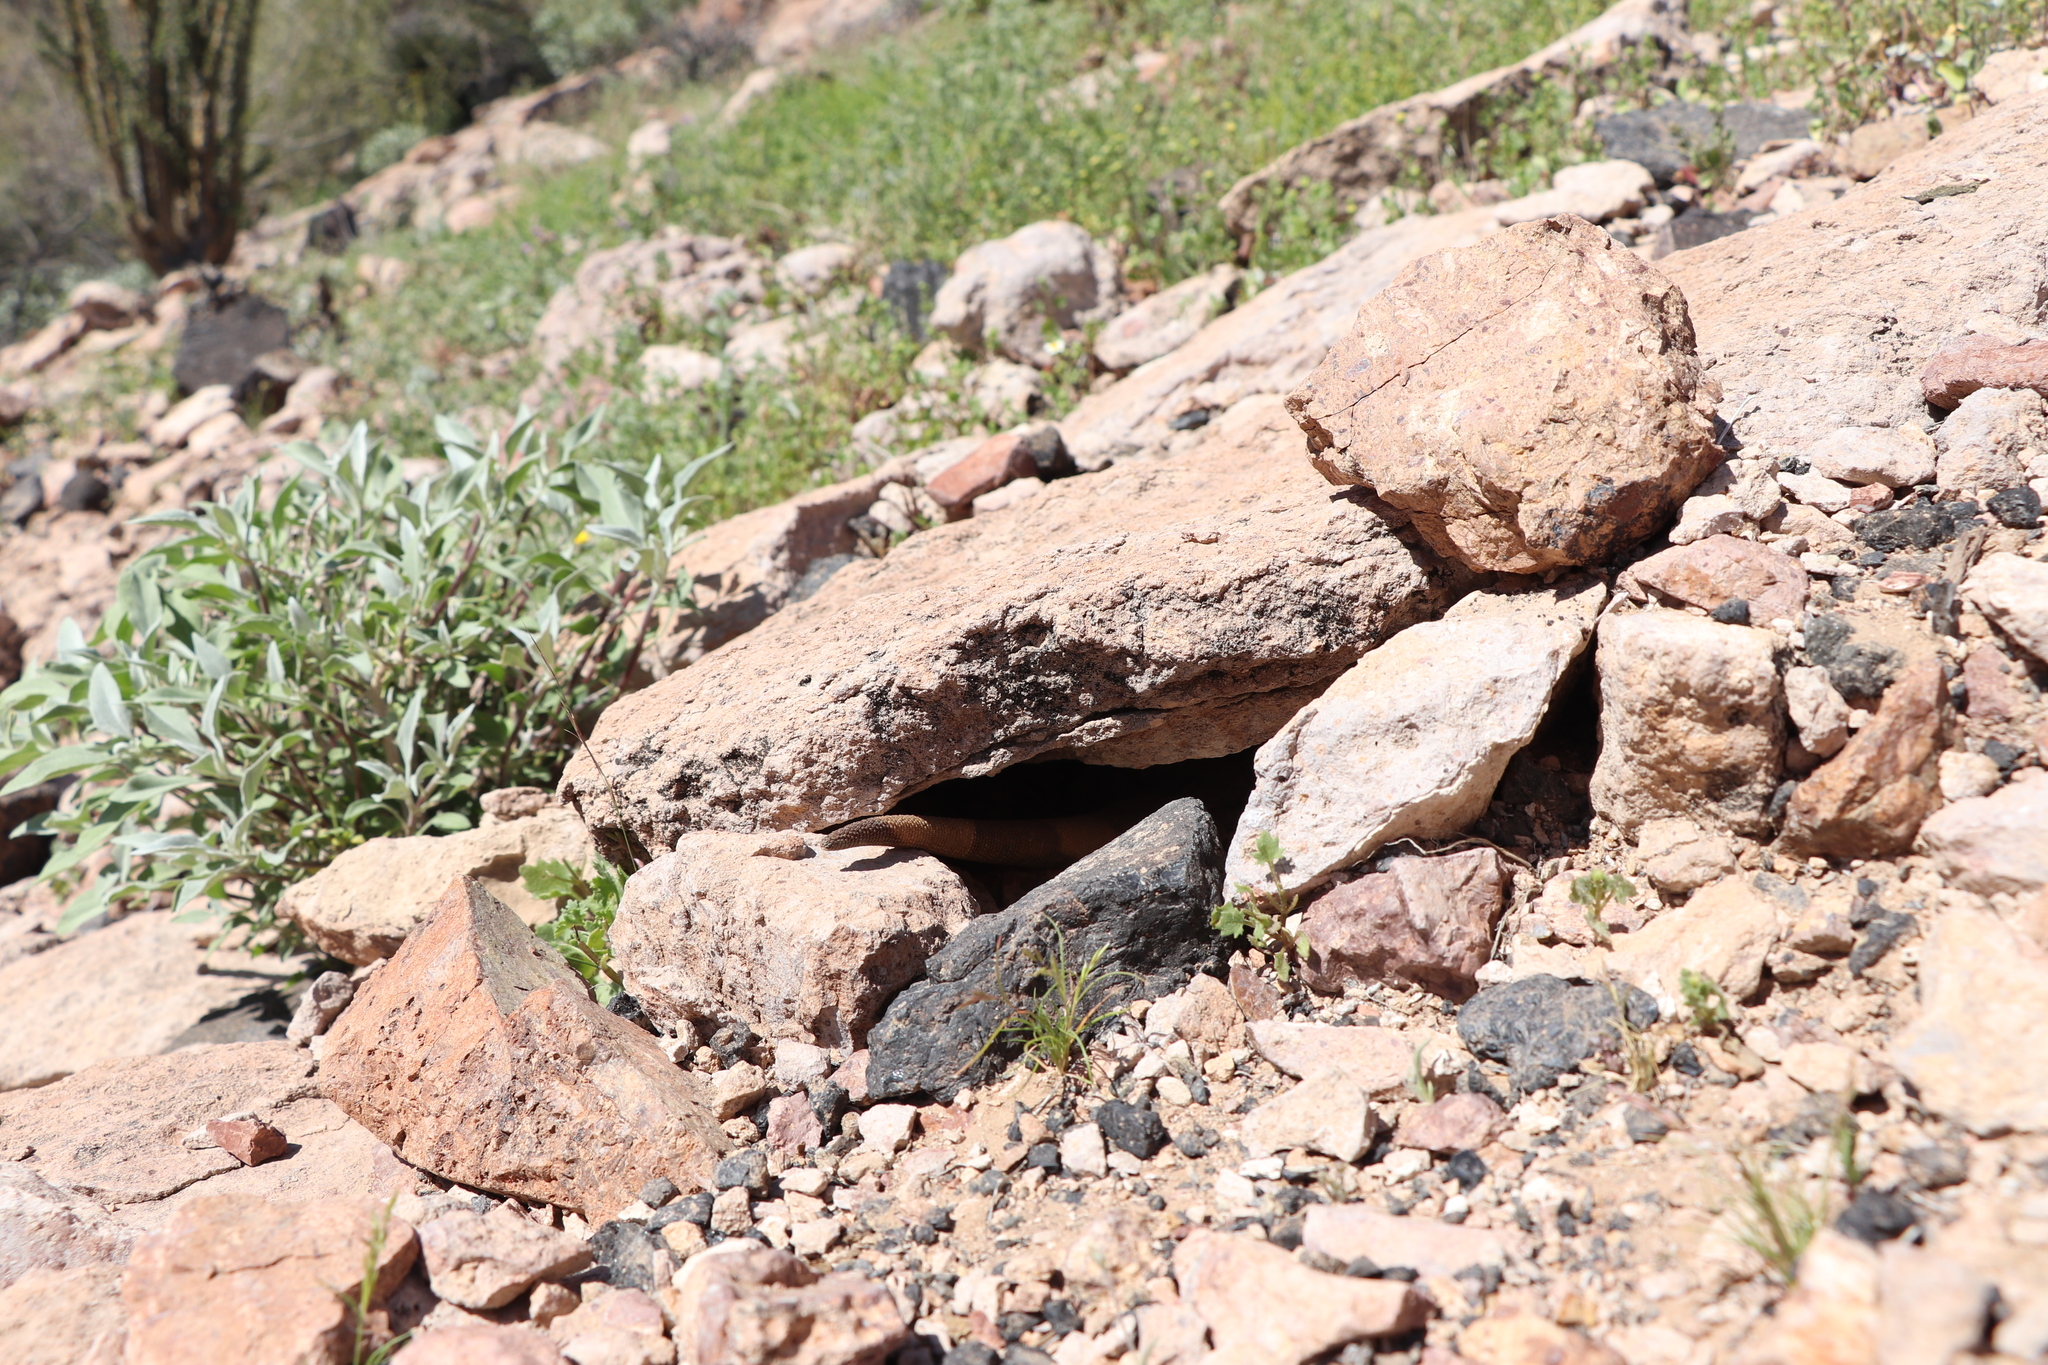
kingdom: Animalia
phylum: Chordata
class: Squamata
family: Iguanidae
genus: Sauromalus
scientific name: Sauromalus ater
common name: Northern chuckwalla
